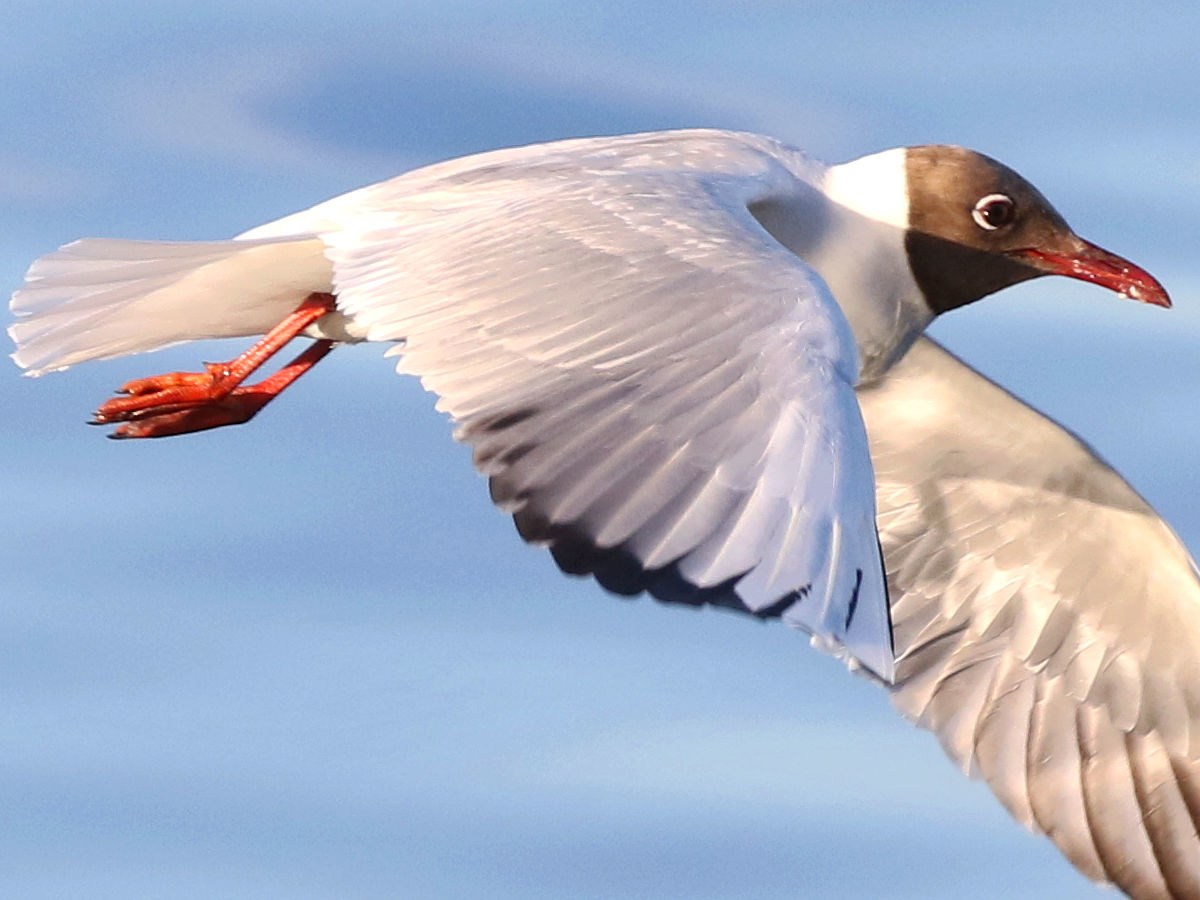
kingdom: Animalia
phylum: Chordata
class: Aves
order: Charadriiformes
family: Laridae
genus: Chroicocephalus
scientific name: Chroicocephalus ridibundus
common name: Black-headed gull
